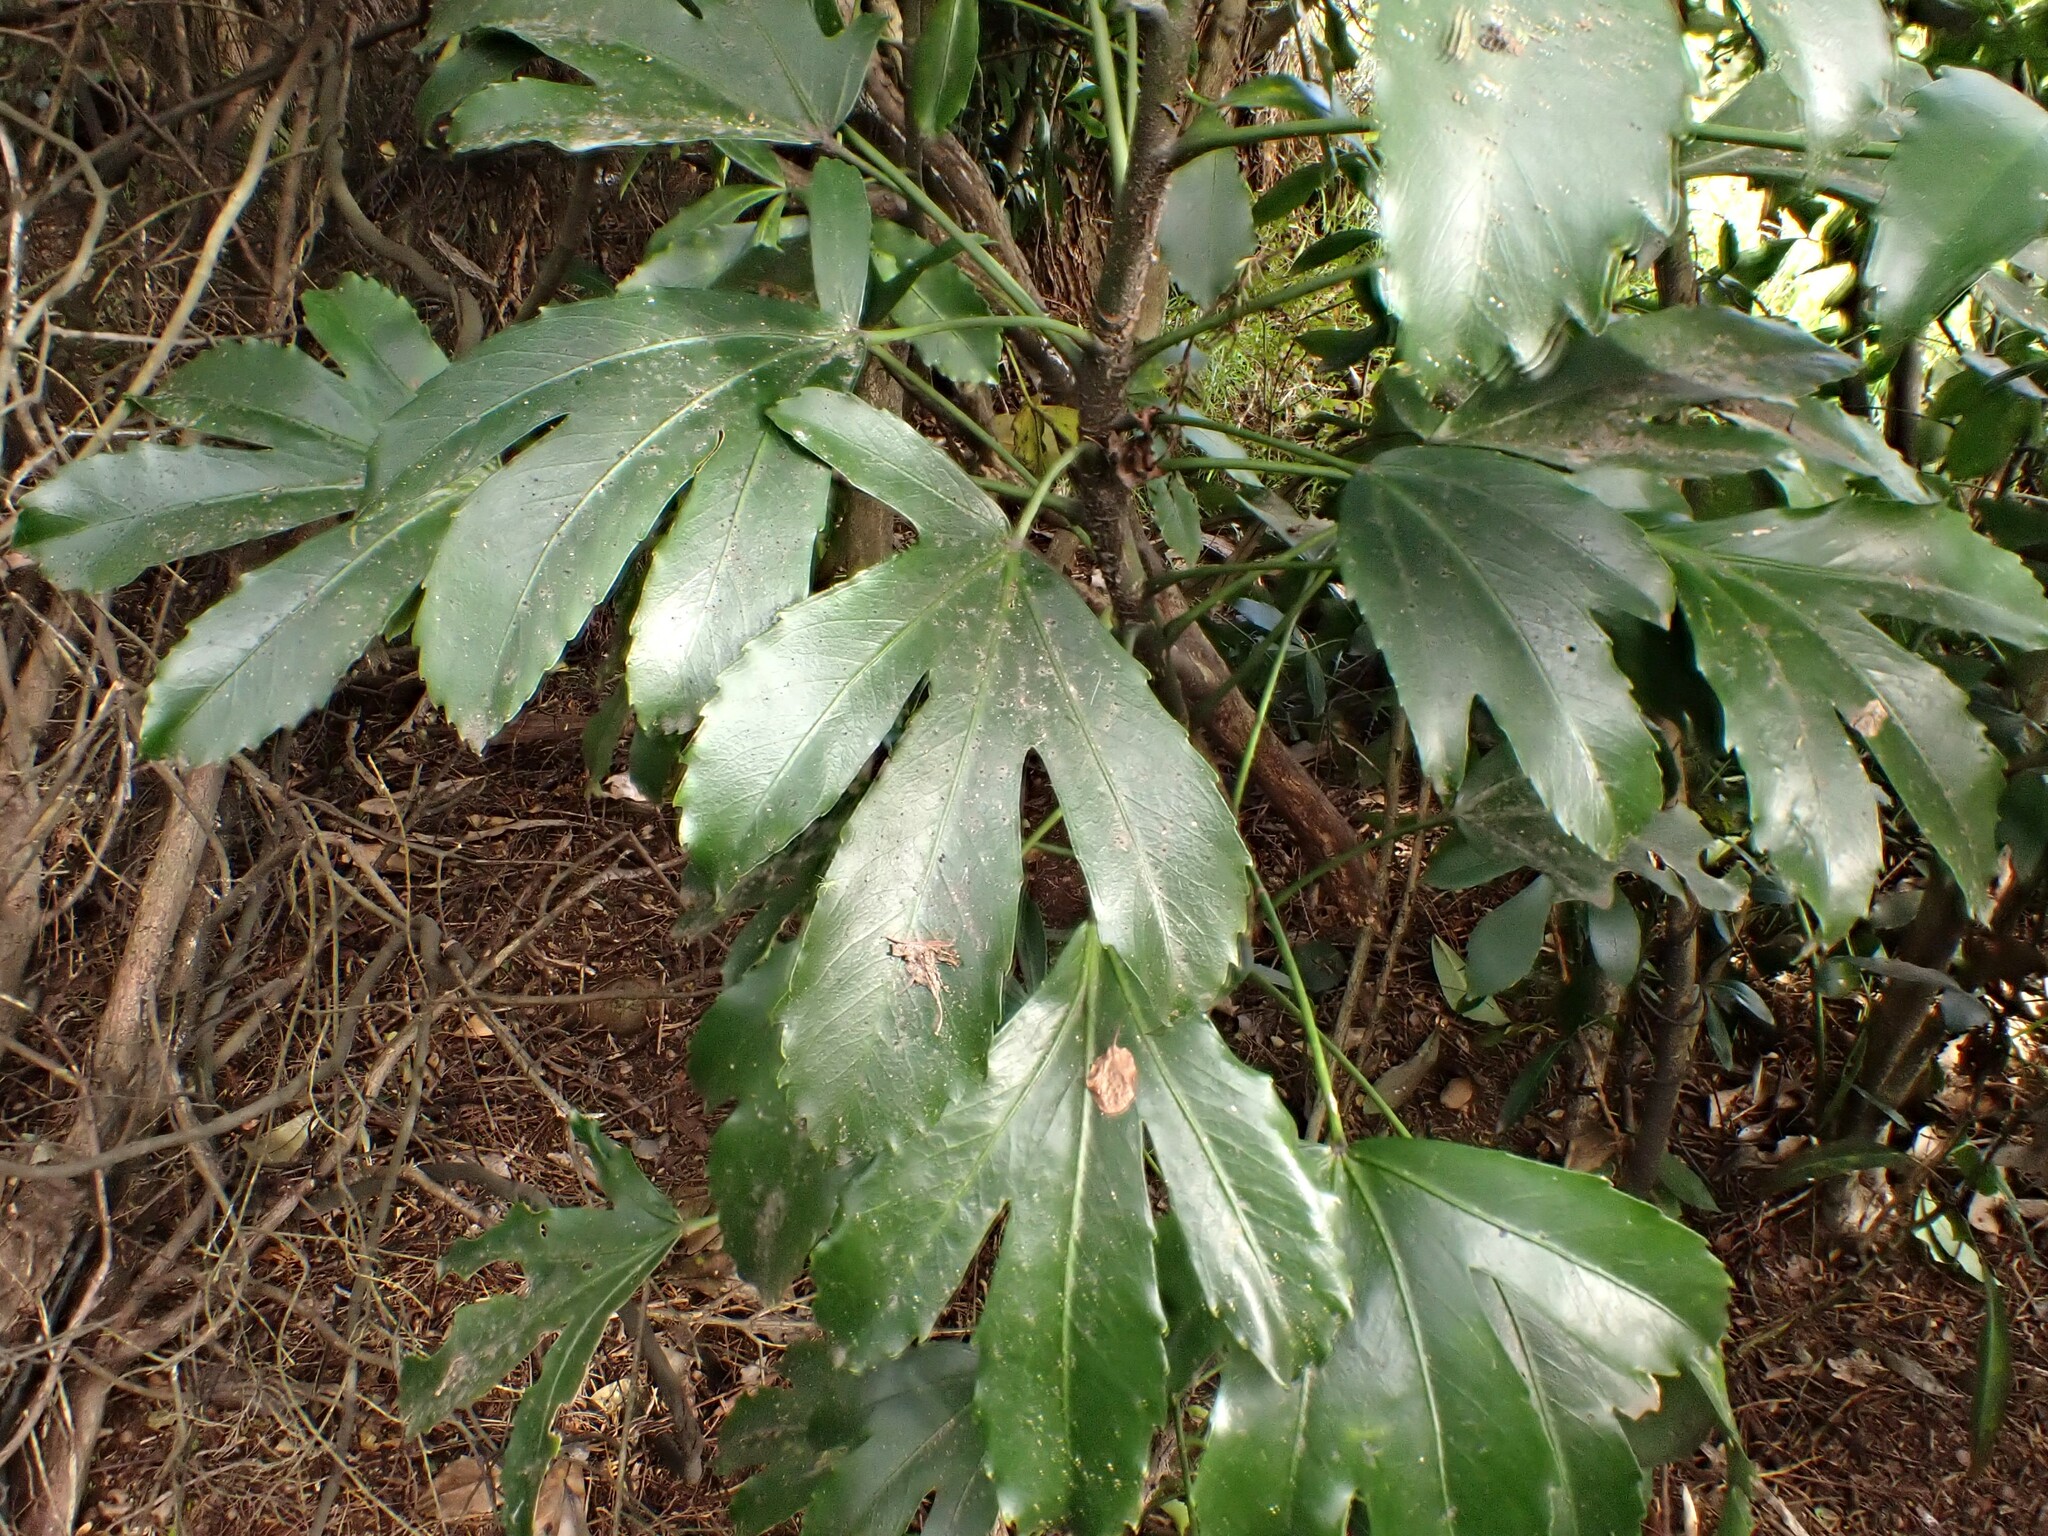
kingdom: Plantae
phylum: Tracheophyta
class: Magnoliopsida
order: Apiales
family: Araliaceae
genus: Pseudopanax
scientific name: Pseudopanax
